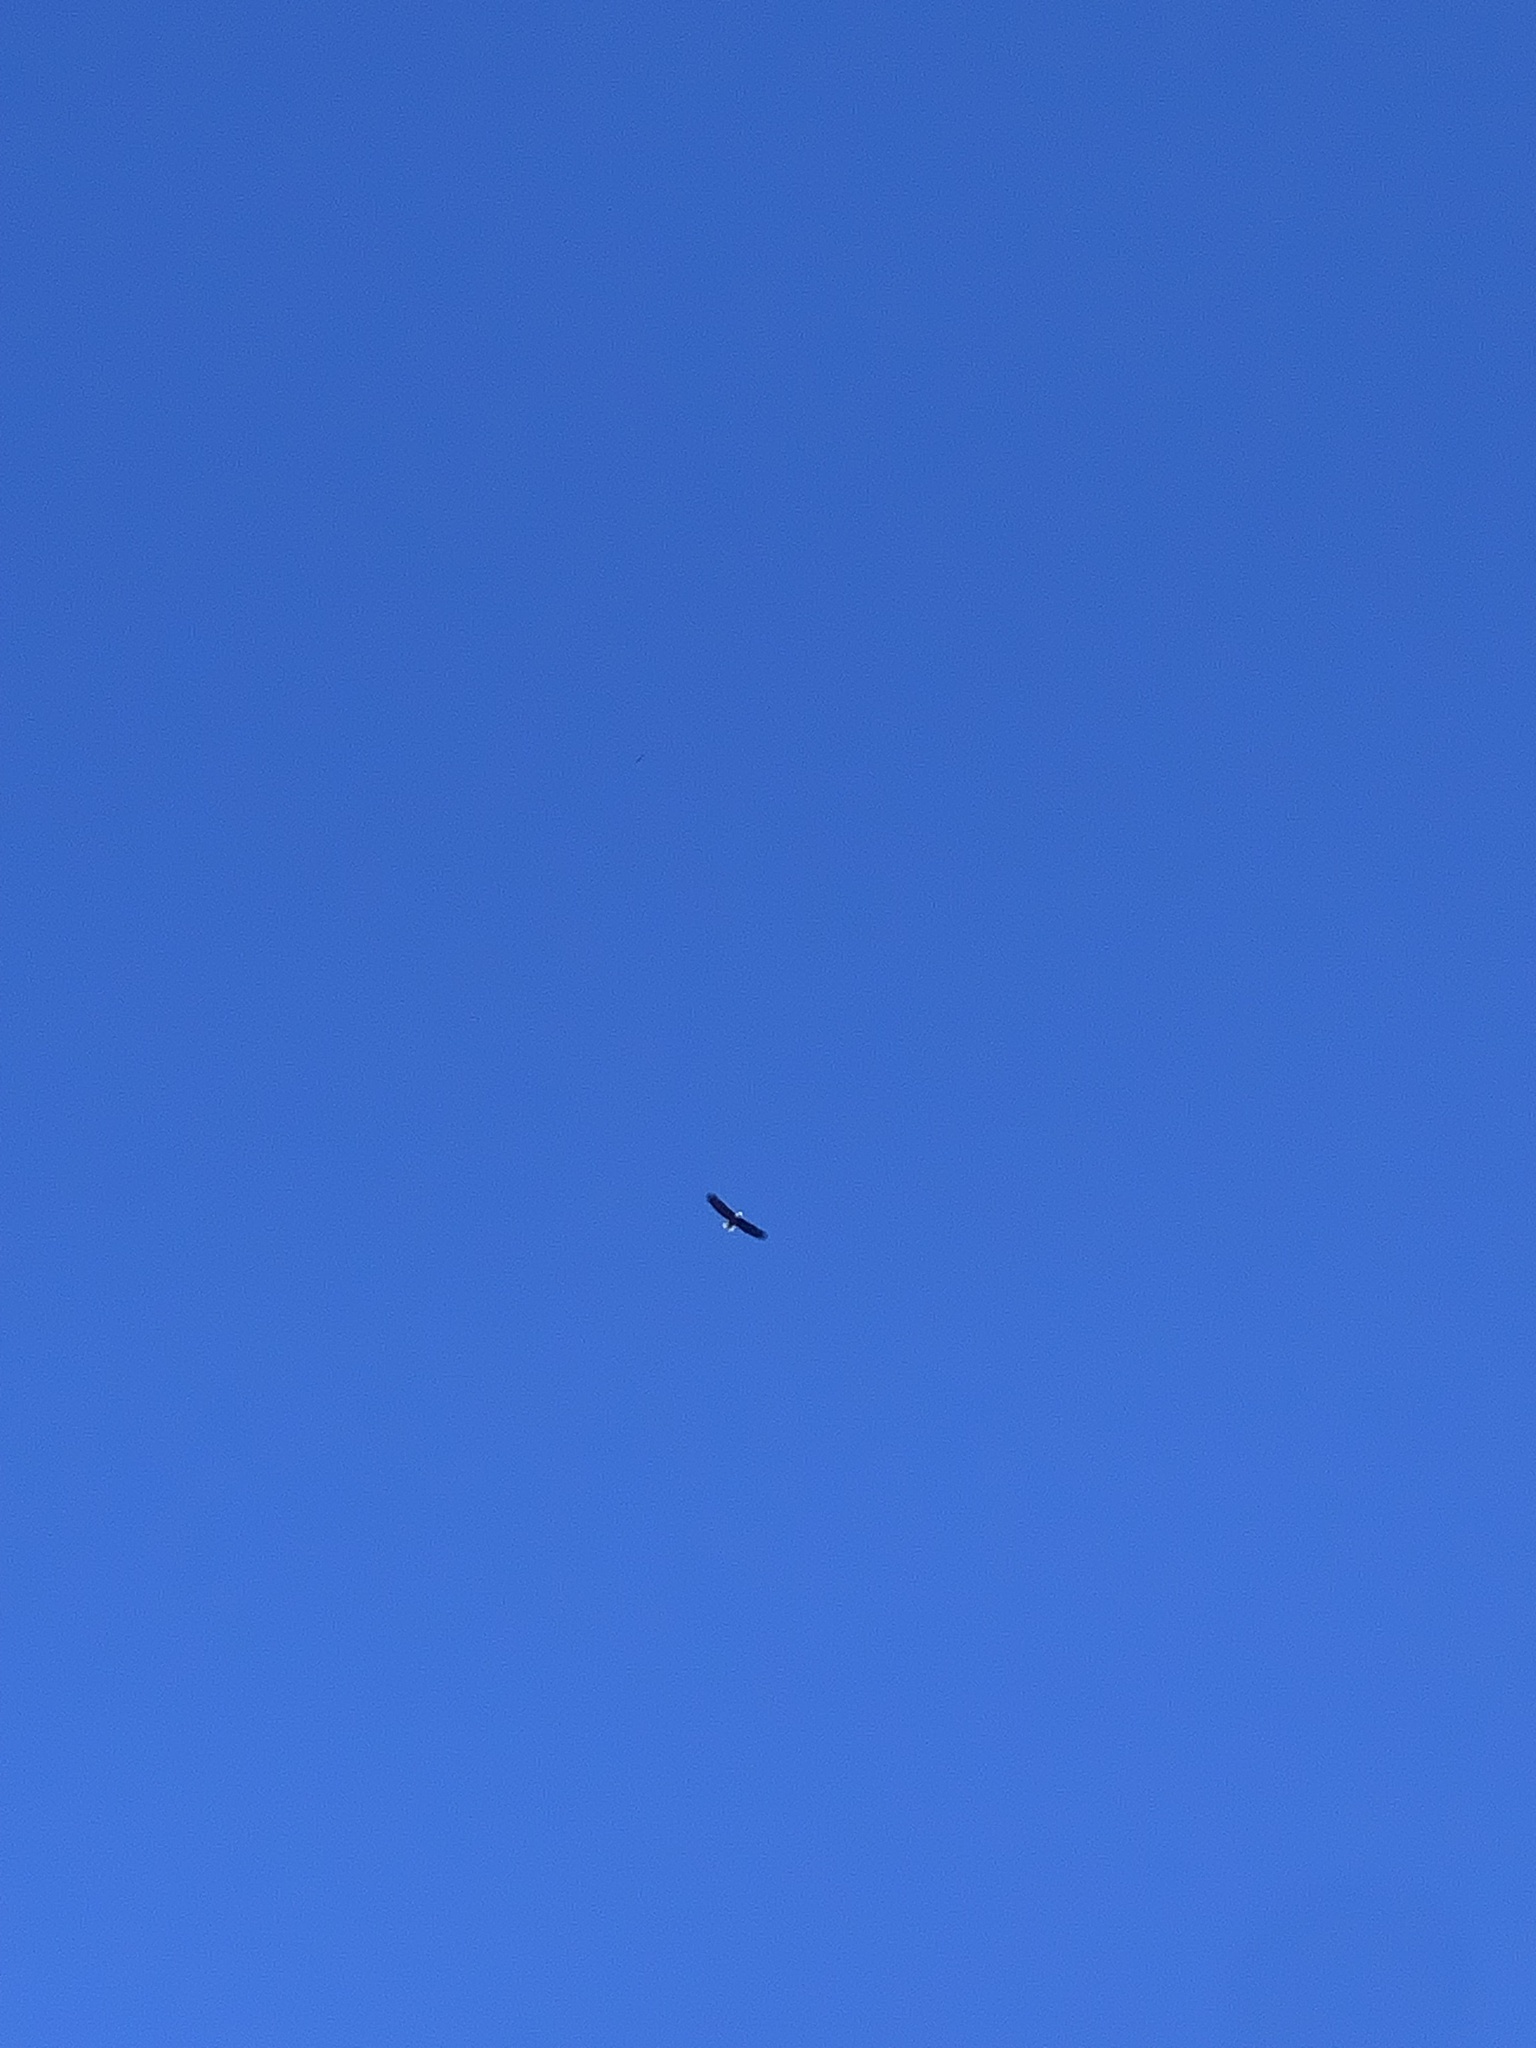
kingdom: Animalia
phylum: Chordata
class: Aves
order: Accipitriformes
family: Accipitridae
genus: Haliaeetus
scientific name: Haliaeetus leucocephalus
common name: Bald eagle
